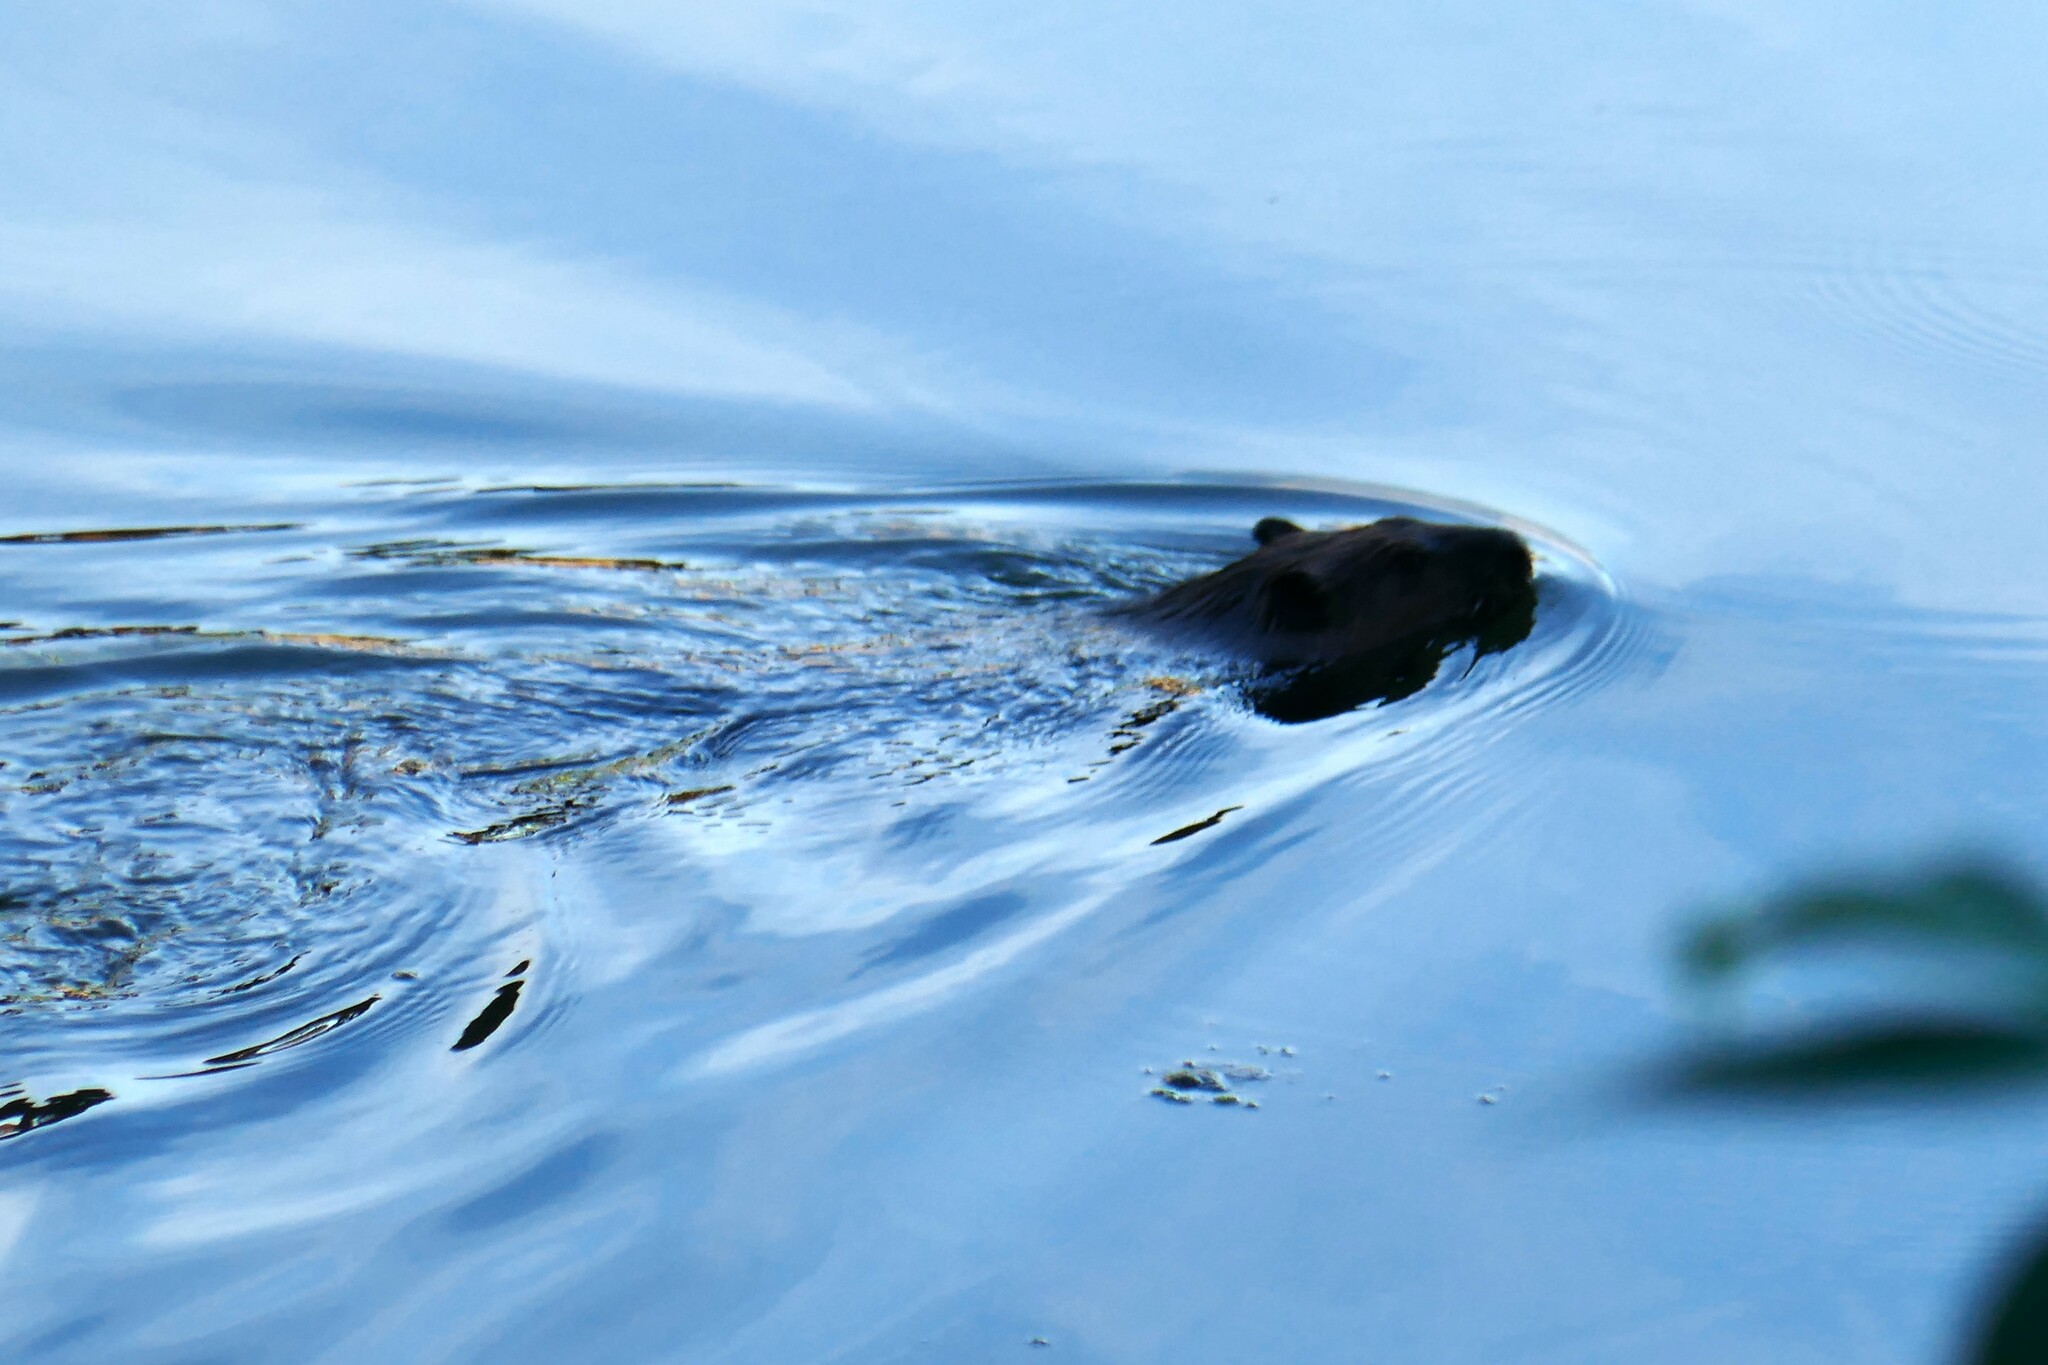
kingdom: Animalia
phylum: Chordata
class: Mammalia
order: Rodentia
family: Castoridae
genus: Castor
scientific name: Castor canadensis
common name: American beaver
